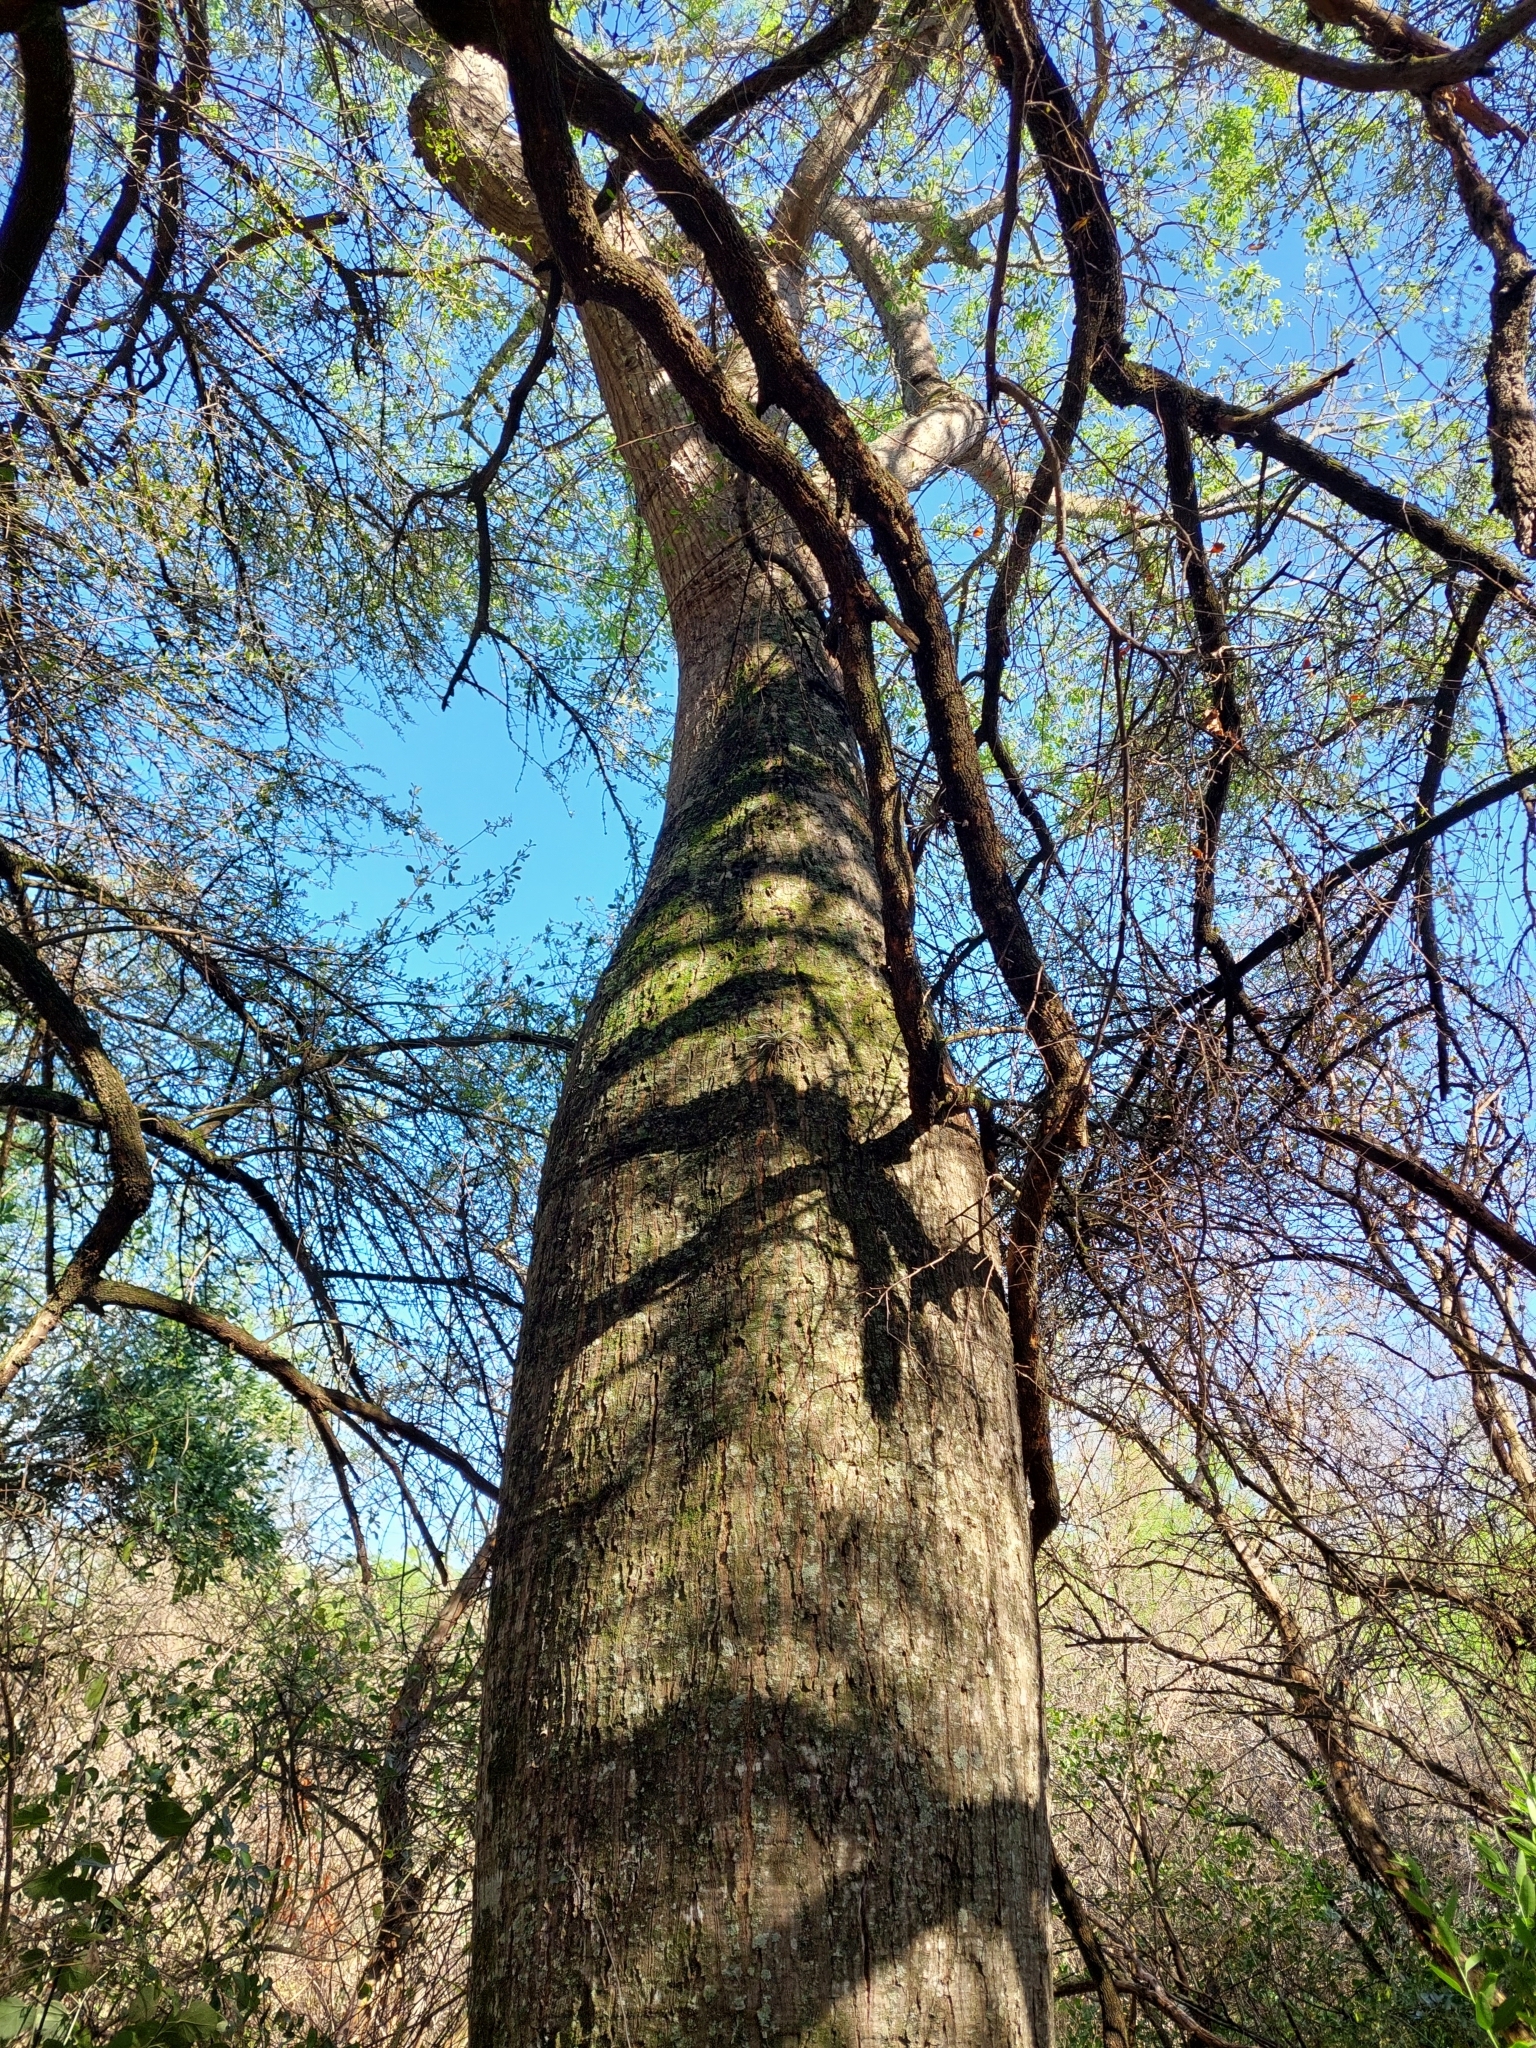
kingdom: Plantae
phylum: Tracheophyta
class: Magnoliopsida
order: Malvales
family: Malvaceae
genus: Ceiba
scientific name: Ceiba chodatii
